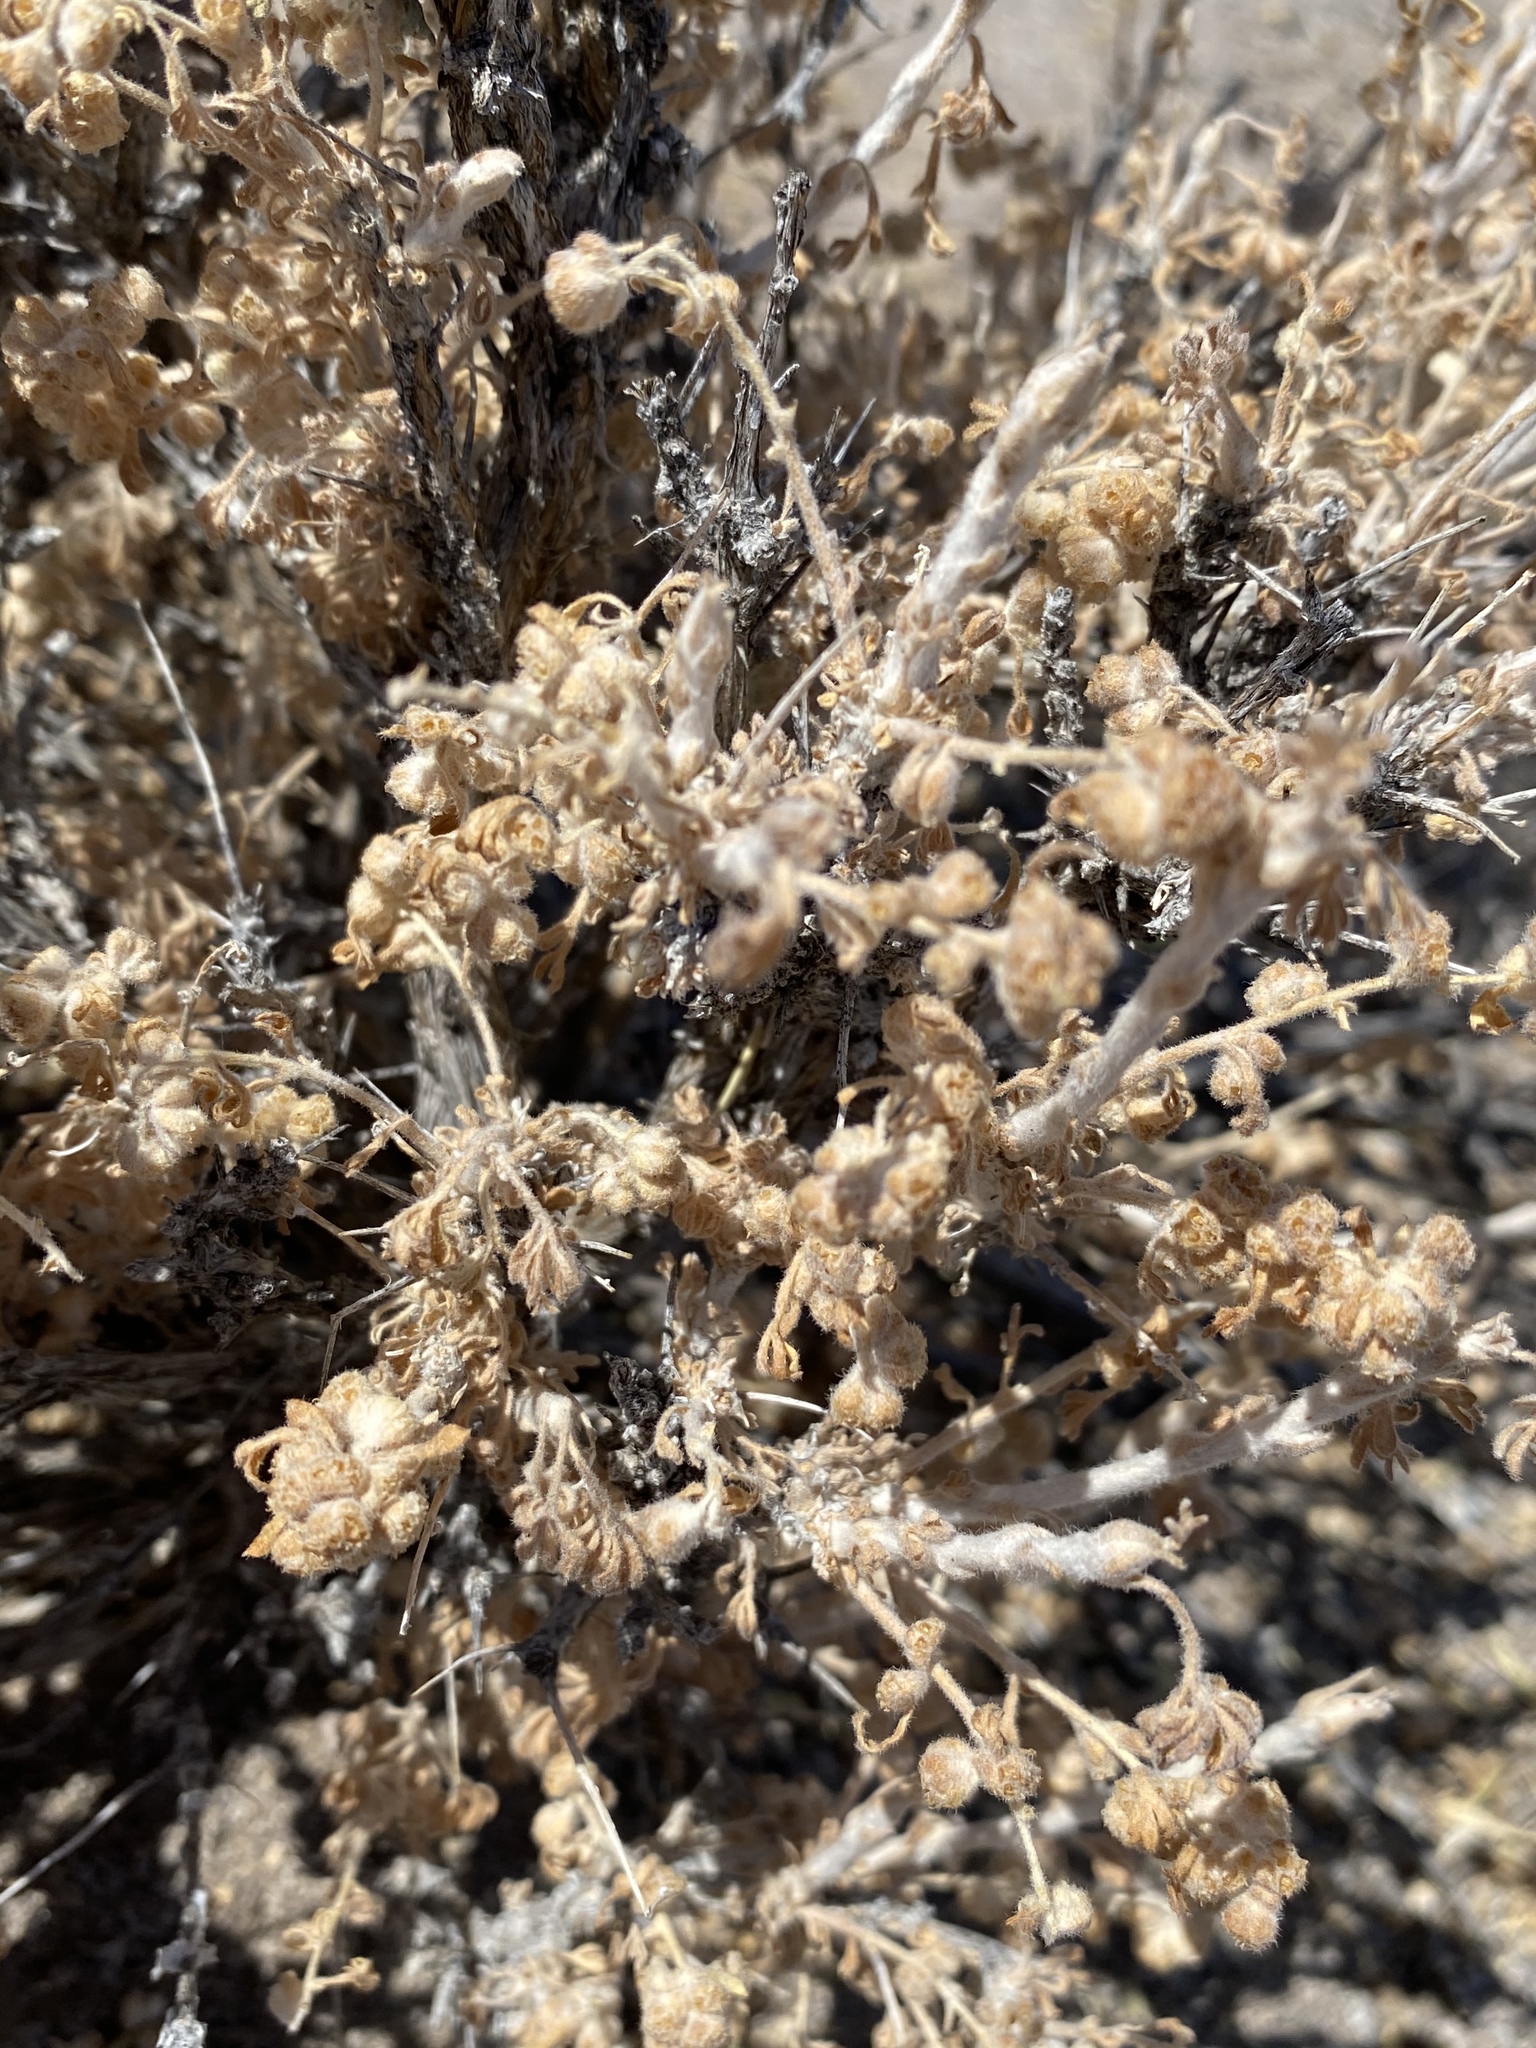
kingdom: Plantae
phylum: Tracheophyta
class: Magnoliopsida
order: Asterales
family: Asteraceae
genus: Artemisia
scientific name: Artemisia spinescens
